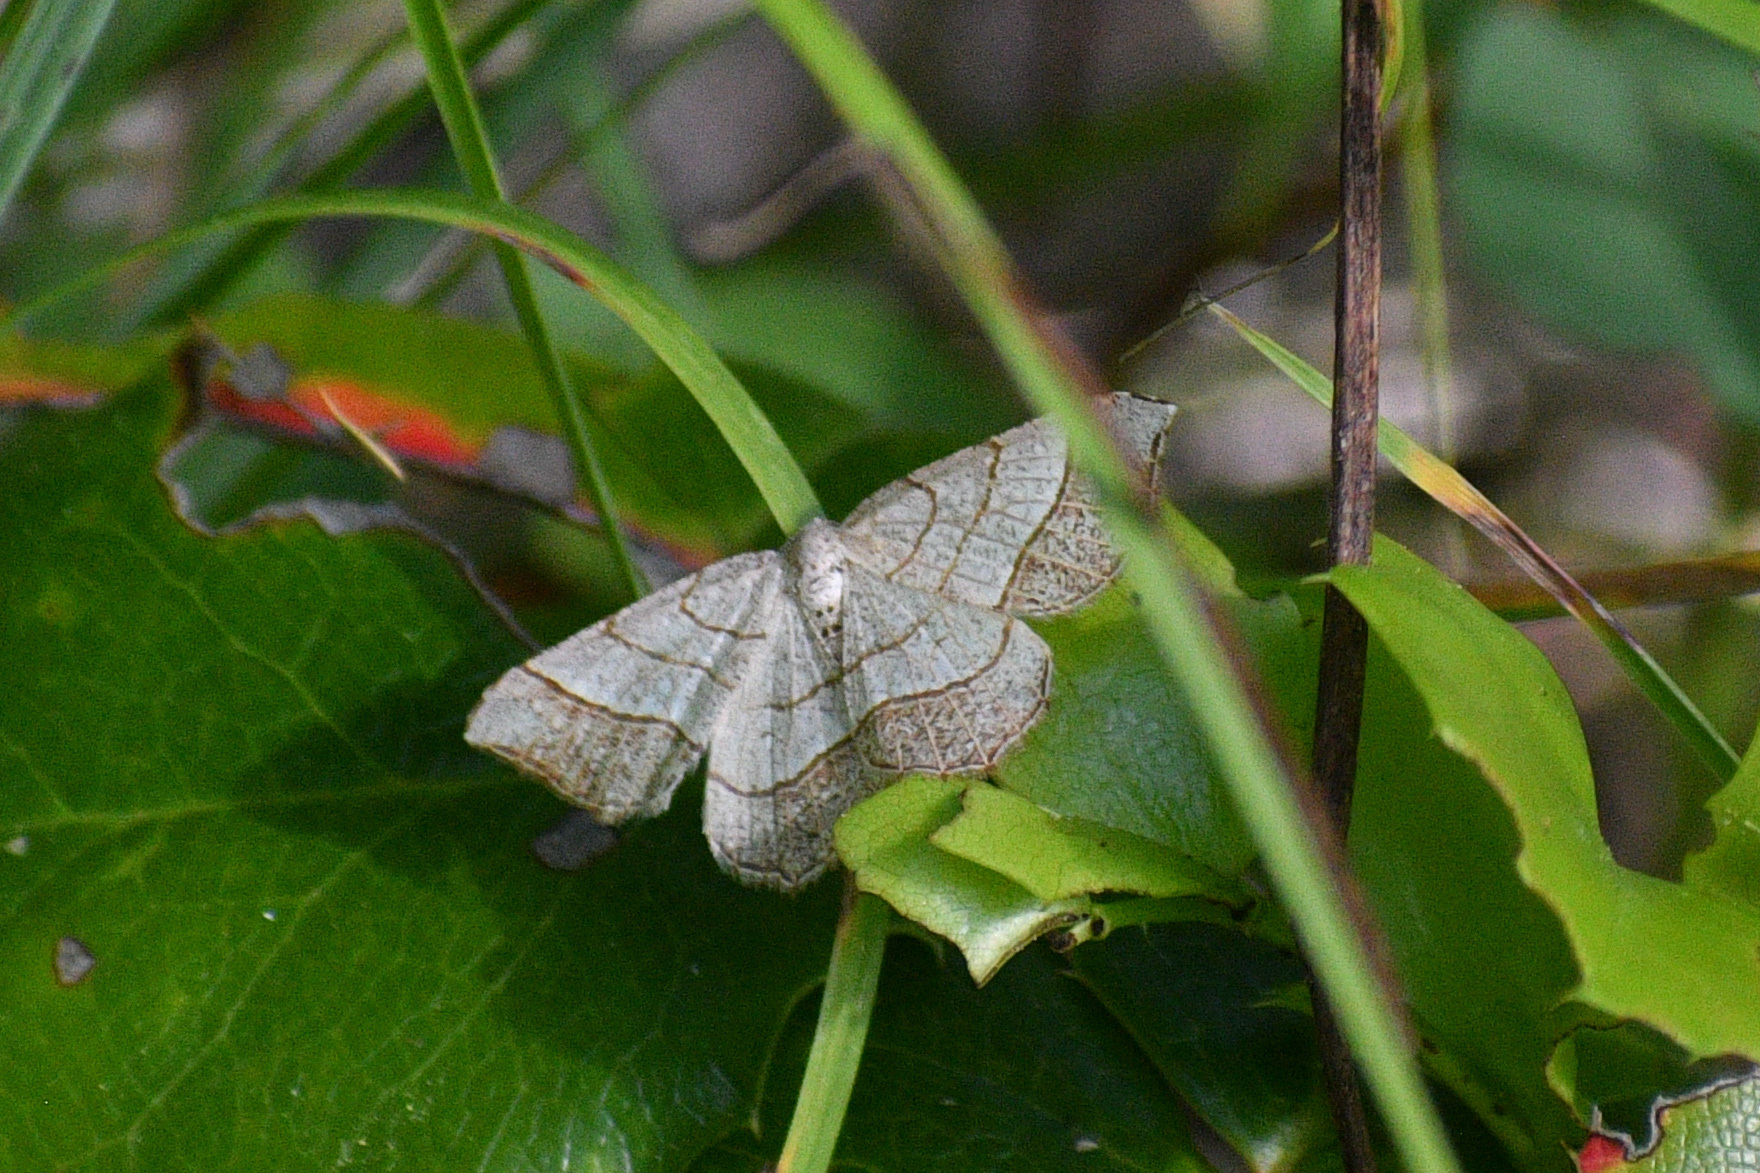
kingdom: Animalia
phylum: Arthropoda
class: Insecta
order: Lepidoptera
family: Geometridae
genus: Eumacaria
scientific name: Eumacaria madopata
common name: Brown-bordered geometer
